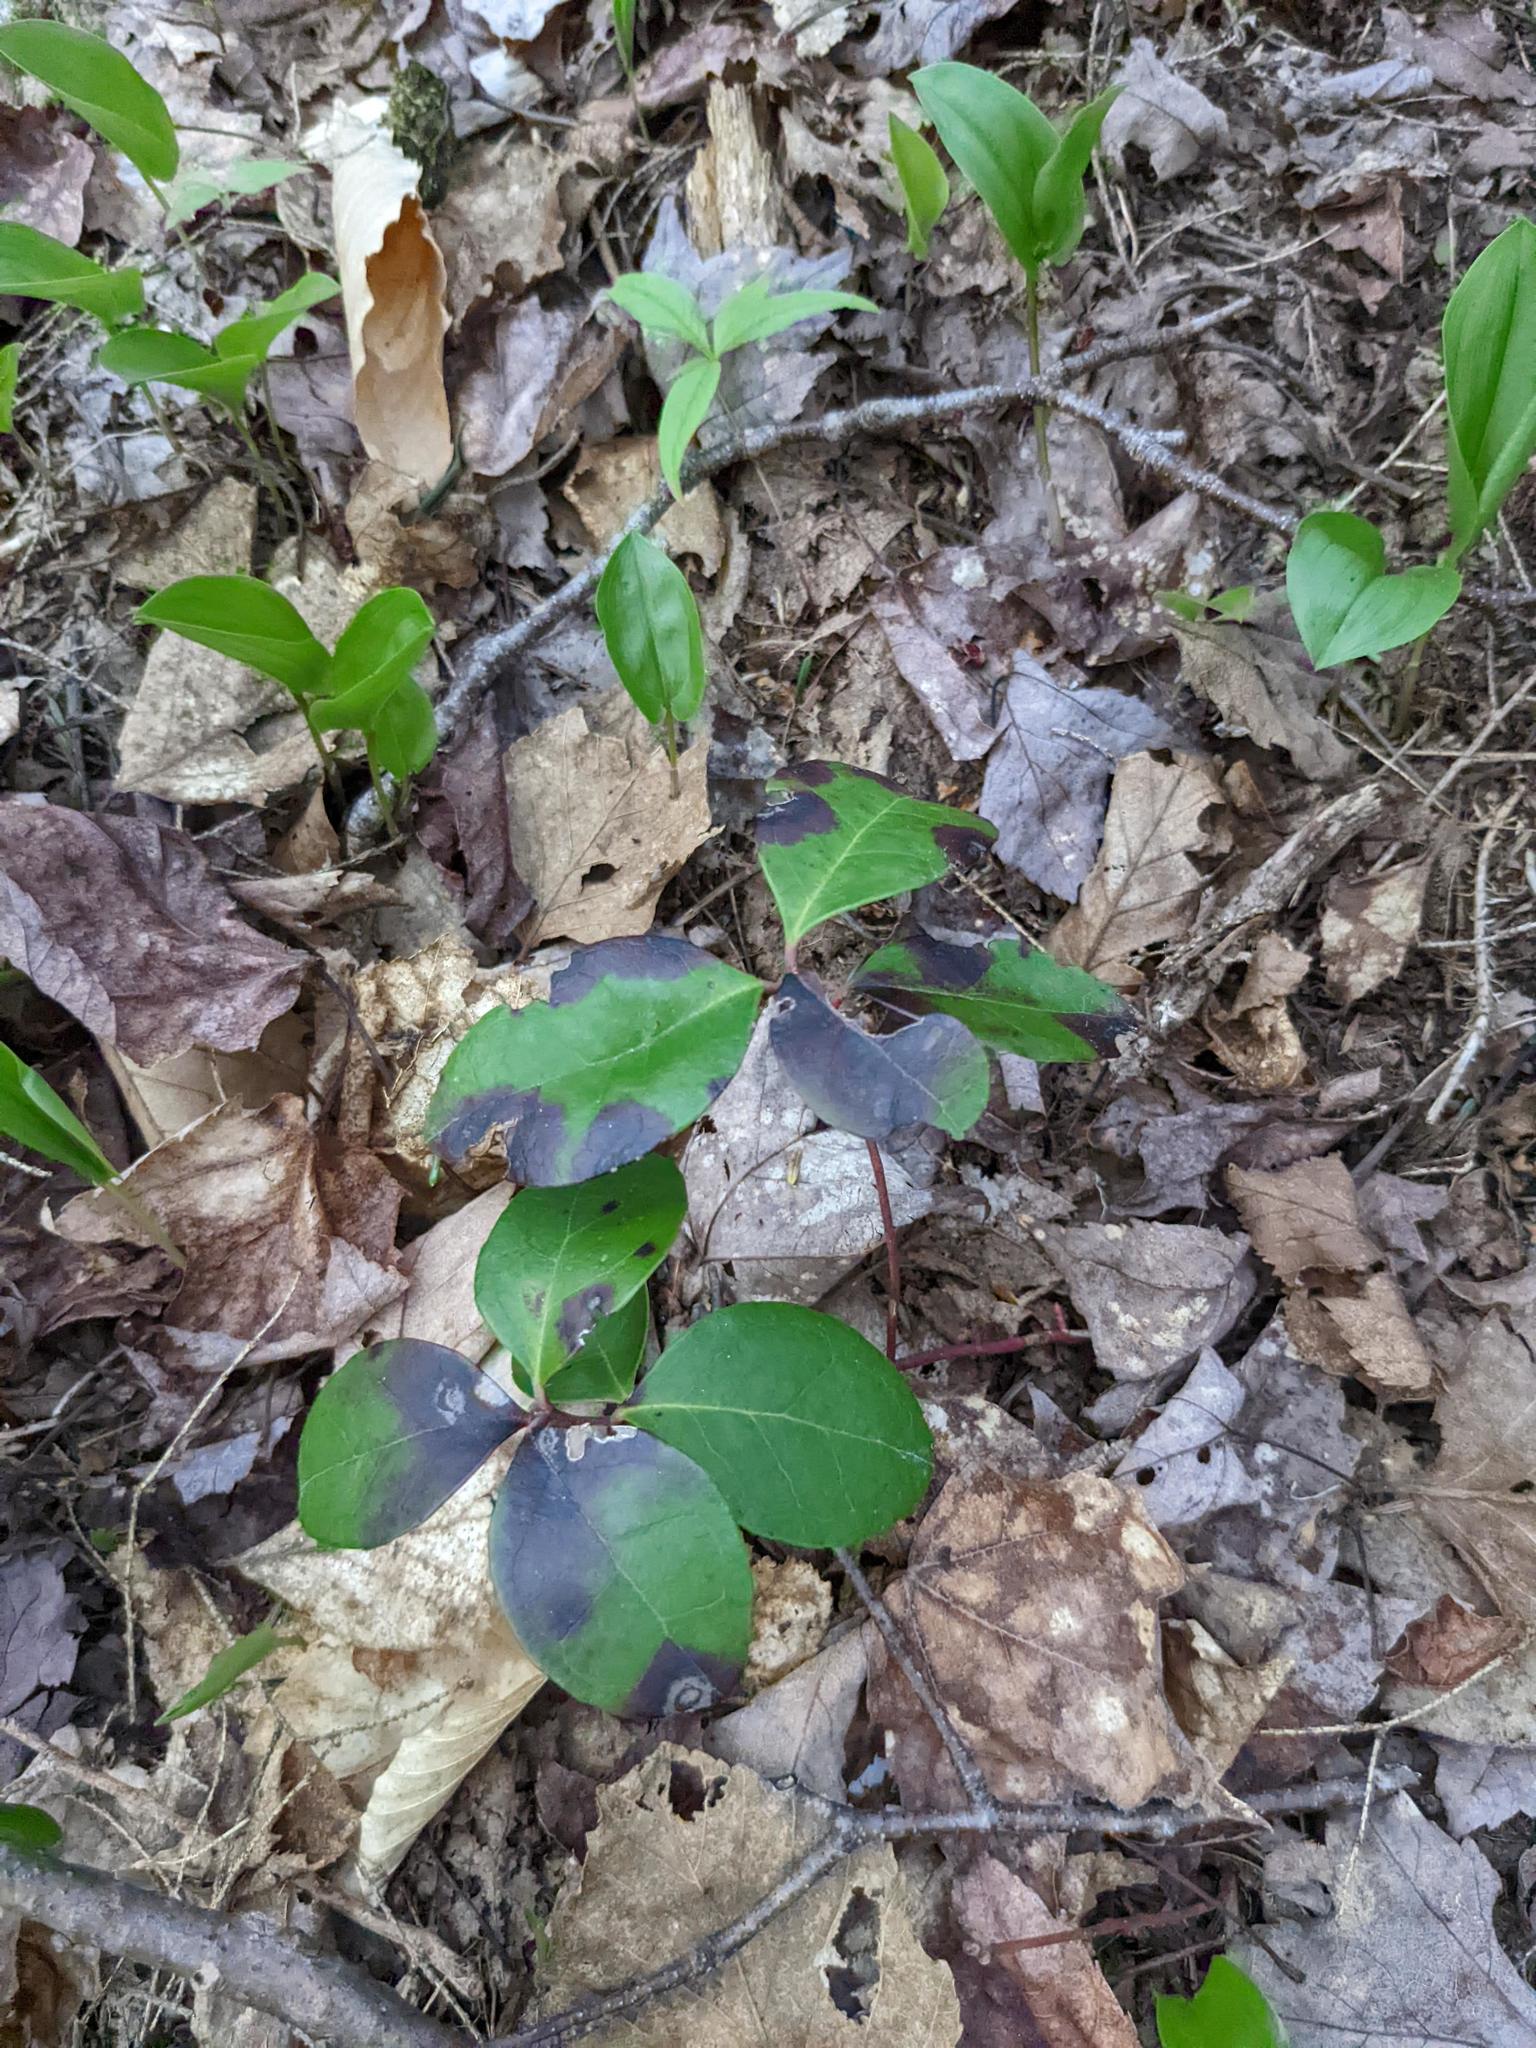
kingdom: Plantae
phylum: Tracheophyta
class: Magnoliopsida
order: Ericales
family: Ericaceae
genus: Gaultheria
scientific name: Gaultheria procumbens
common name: Checkerberry
